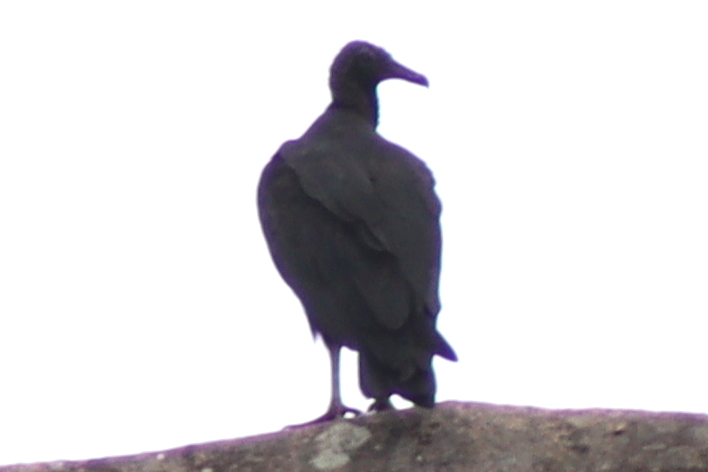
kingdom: Animalia
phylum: Chordata
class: Aves
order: Accipitriformes
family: Cathartidae
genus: Coragyps
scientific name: Coragyps atratus
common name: Black vulture
